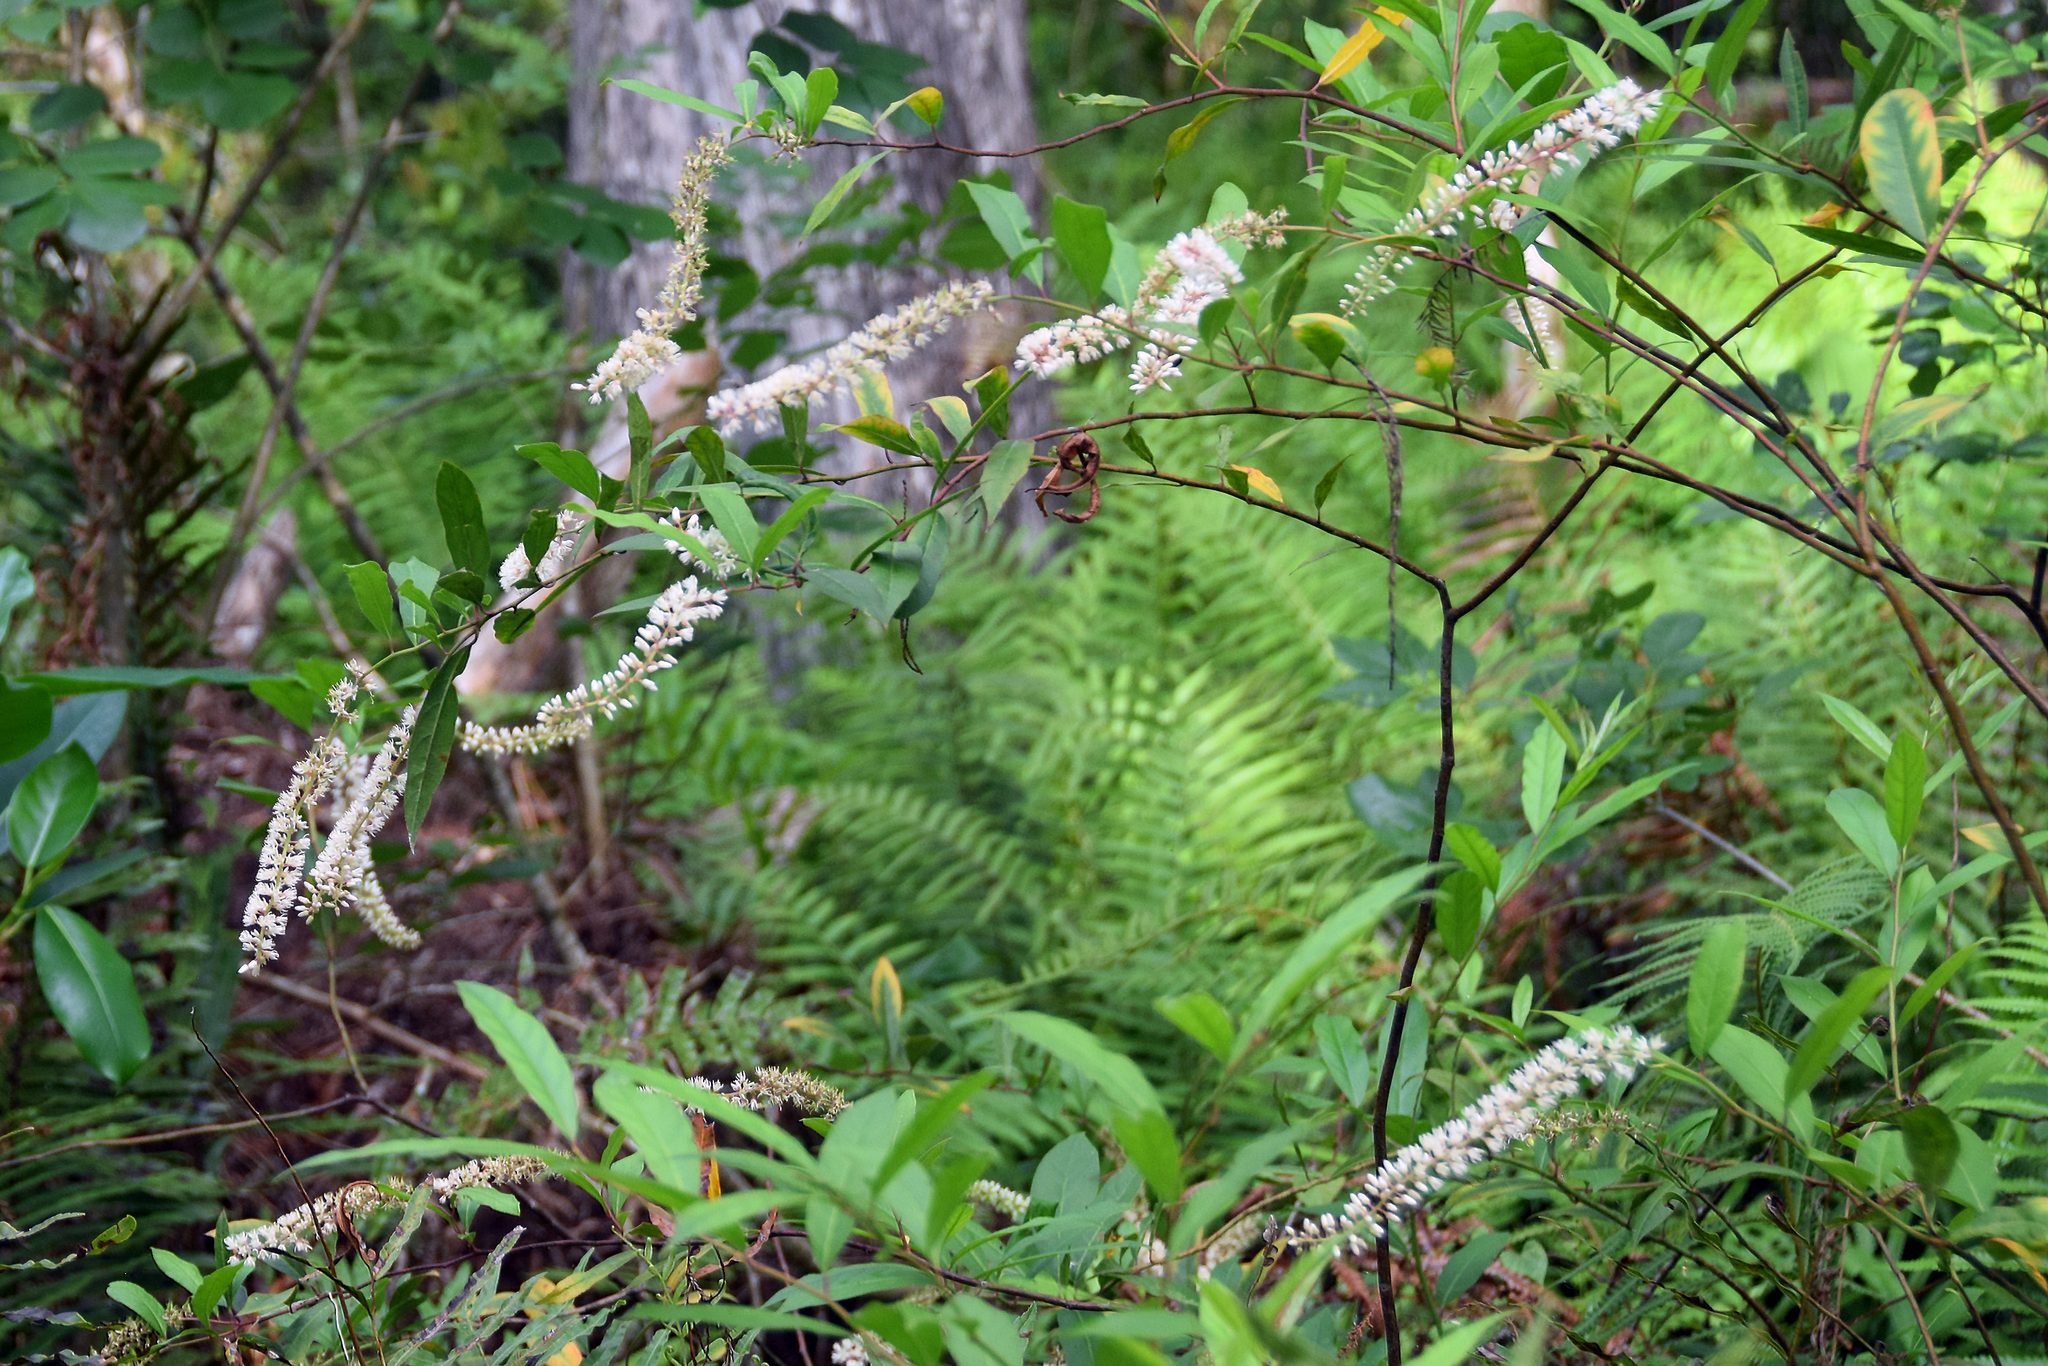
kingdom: Plantae
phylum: Tracheophyta
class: Magnoliopsida
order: Saxifragales
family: Iteaceae
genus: Itea
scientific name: Itea virginica
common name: Sweetspire
